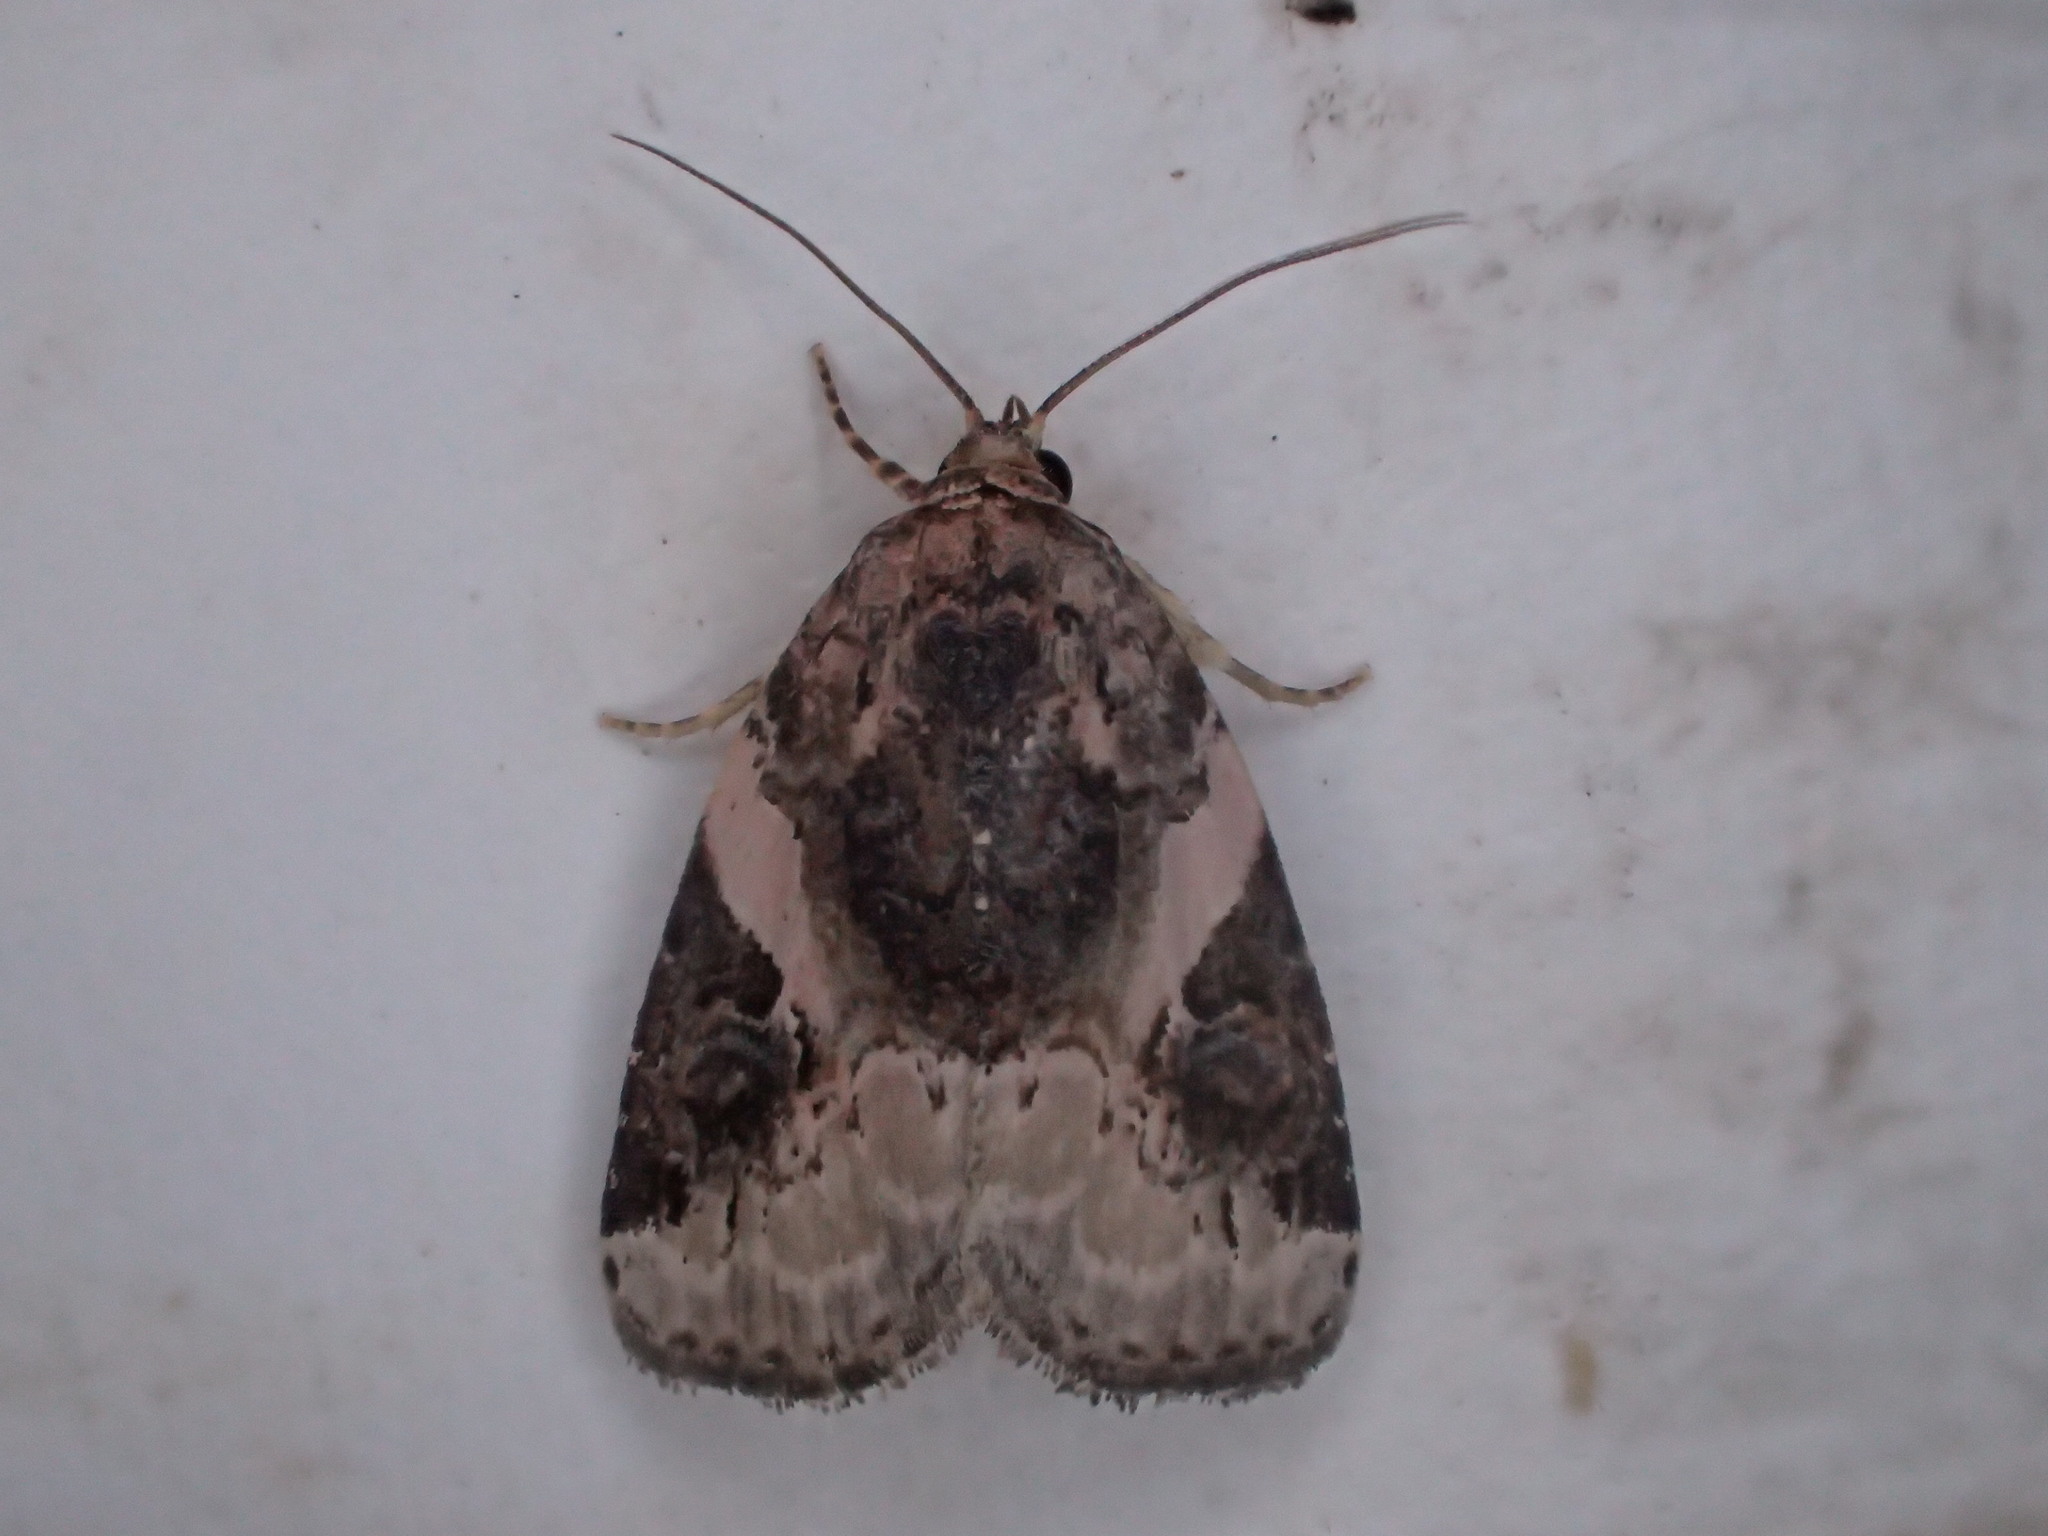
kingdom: Animalia
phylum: Arthropoda
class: Insecta
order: Lepidoptera
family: Noctuidae
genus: Pseudeustrotia
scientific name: Pseudeustrotia carneola
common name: Pink-barred lithacodia moth
